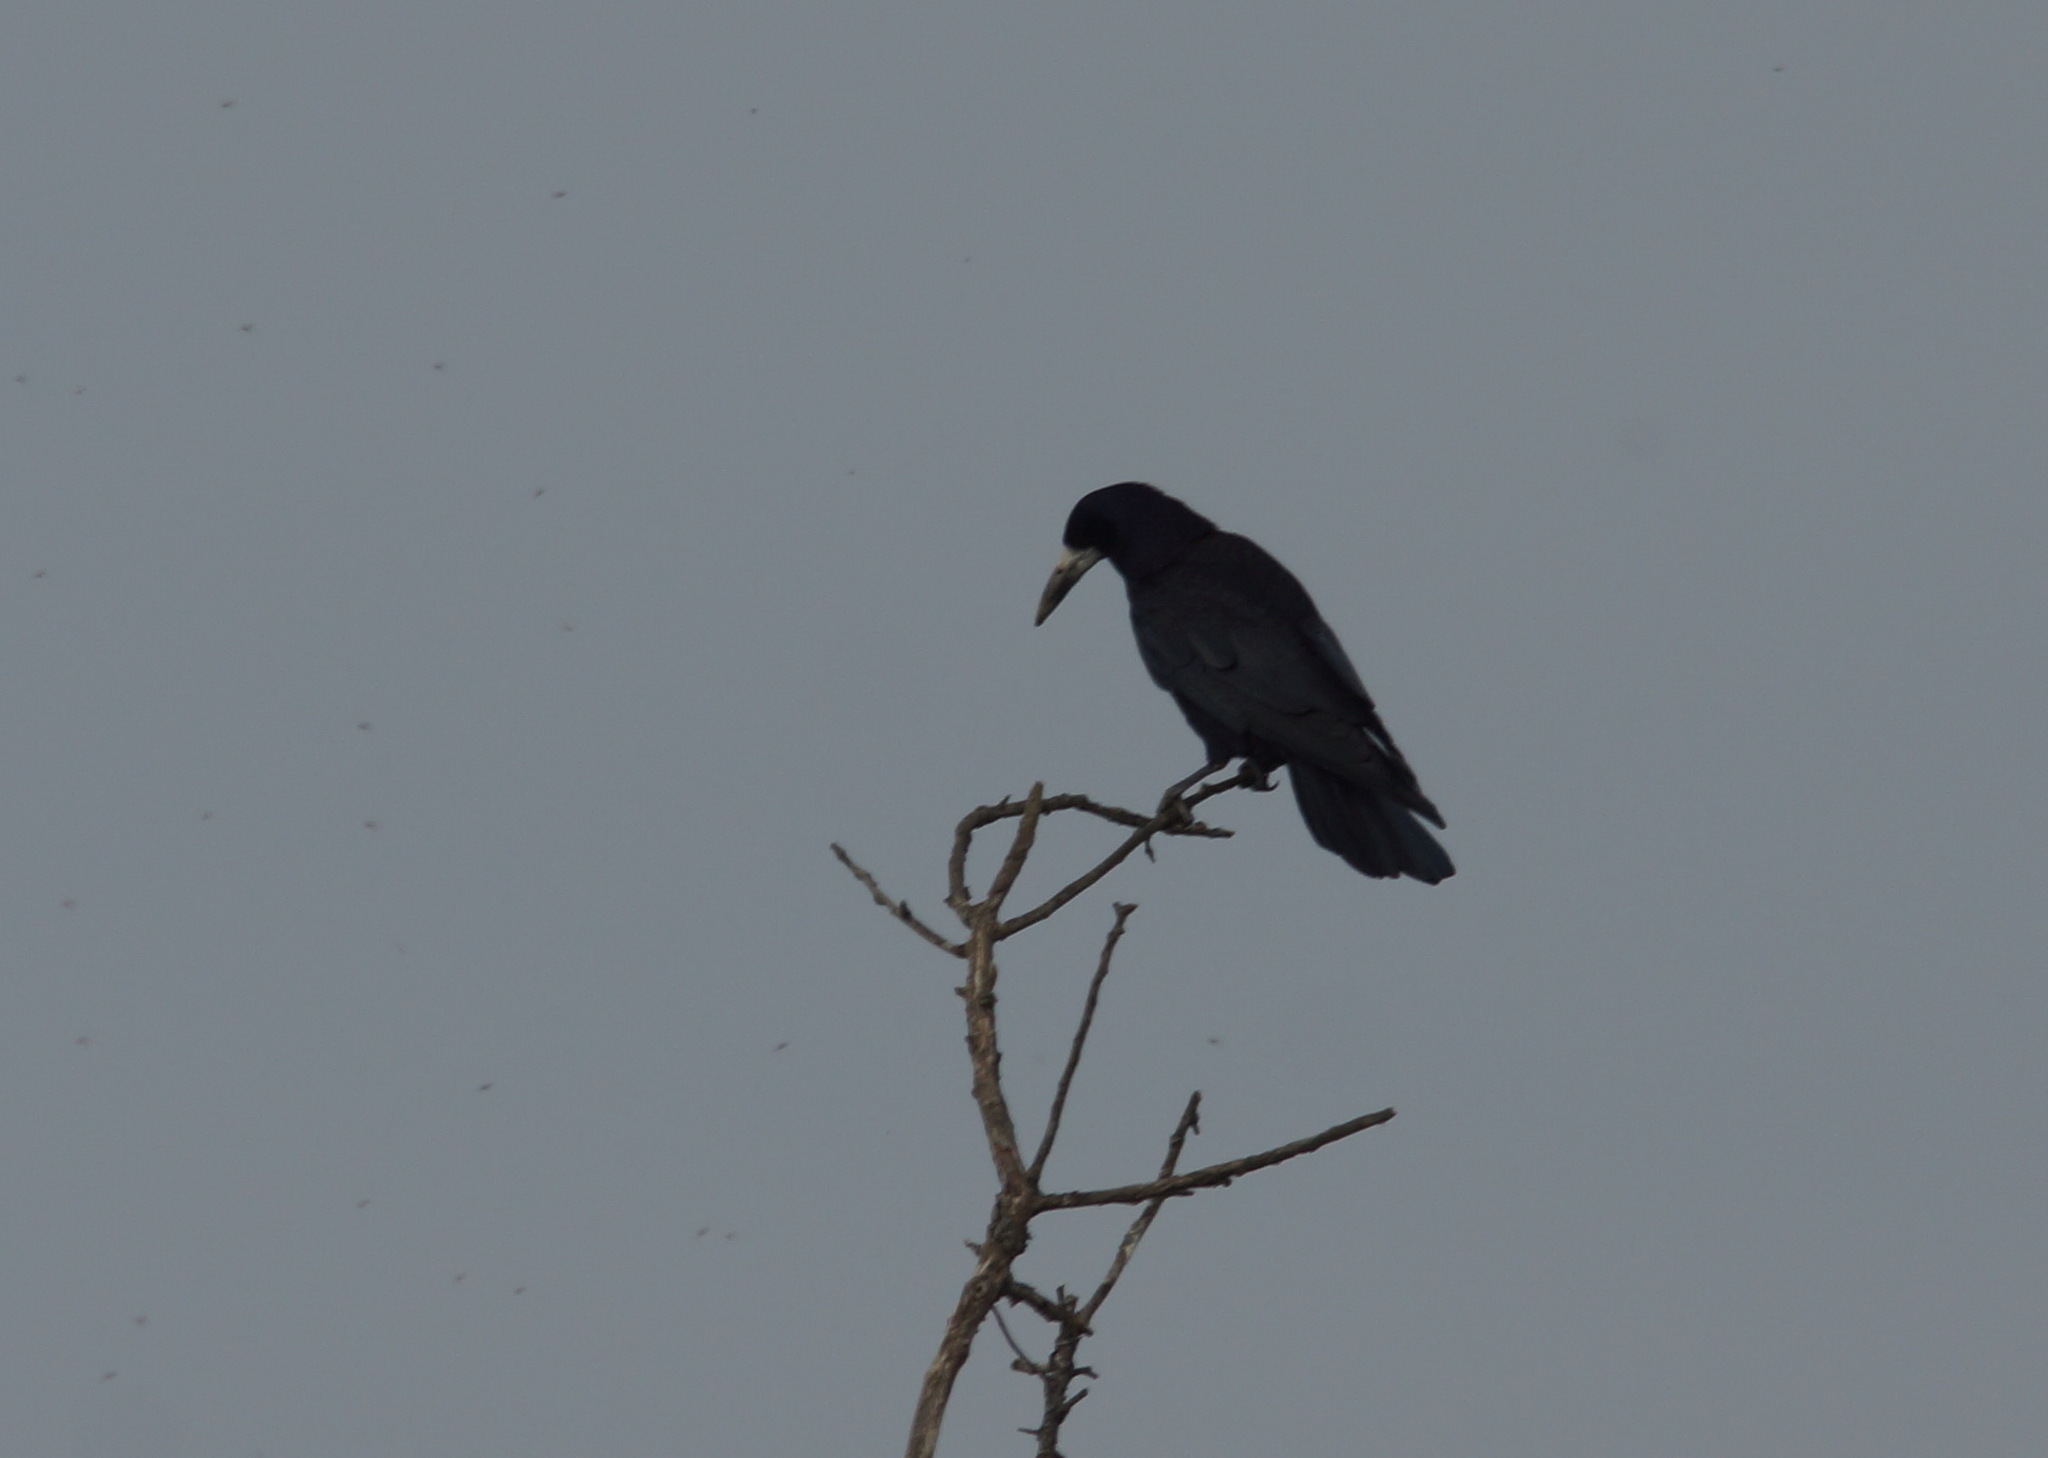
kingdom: Animalia
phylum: Chordata
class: Aves
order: Passeriformes
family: Corvidae
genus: Corvus
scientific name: Corvus frugilegus
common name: Rook
